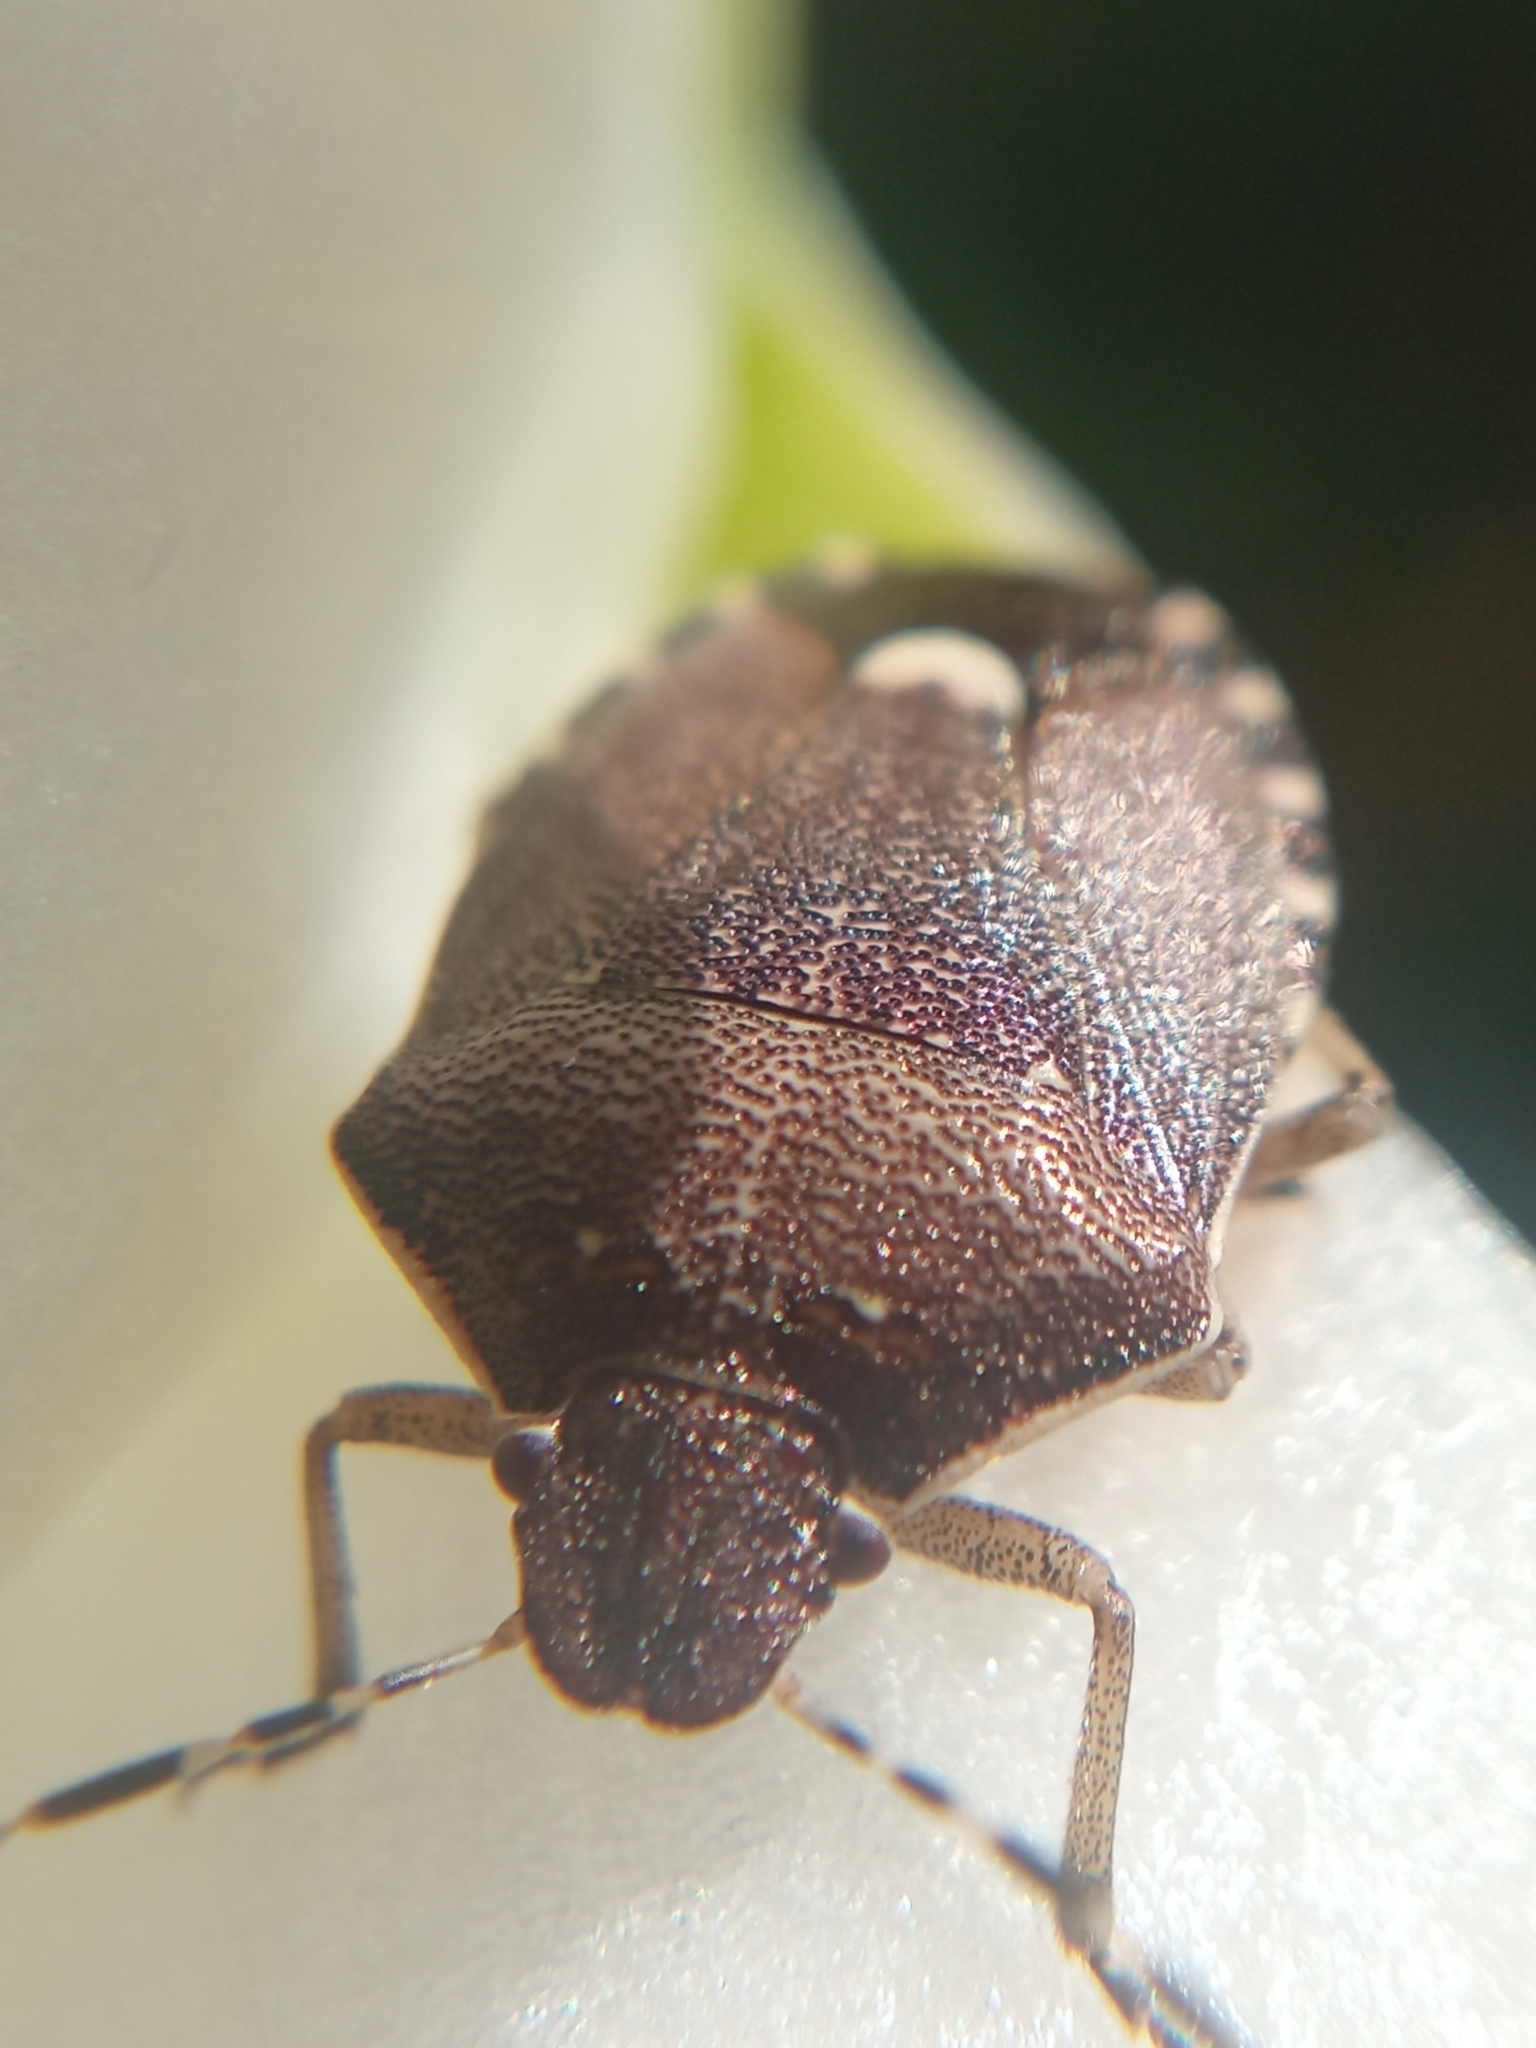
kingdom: Animalia
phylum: Arthropoda
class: Insecta
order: Hemiptera
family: Pentatomidae
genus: Holcostethus
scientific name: Holcostethus sphacelatus
